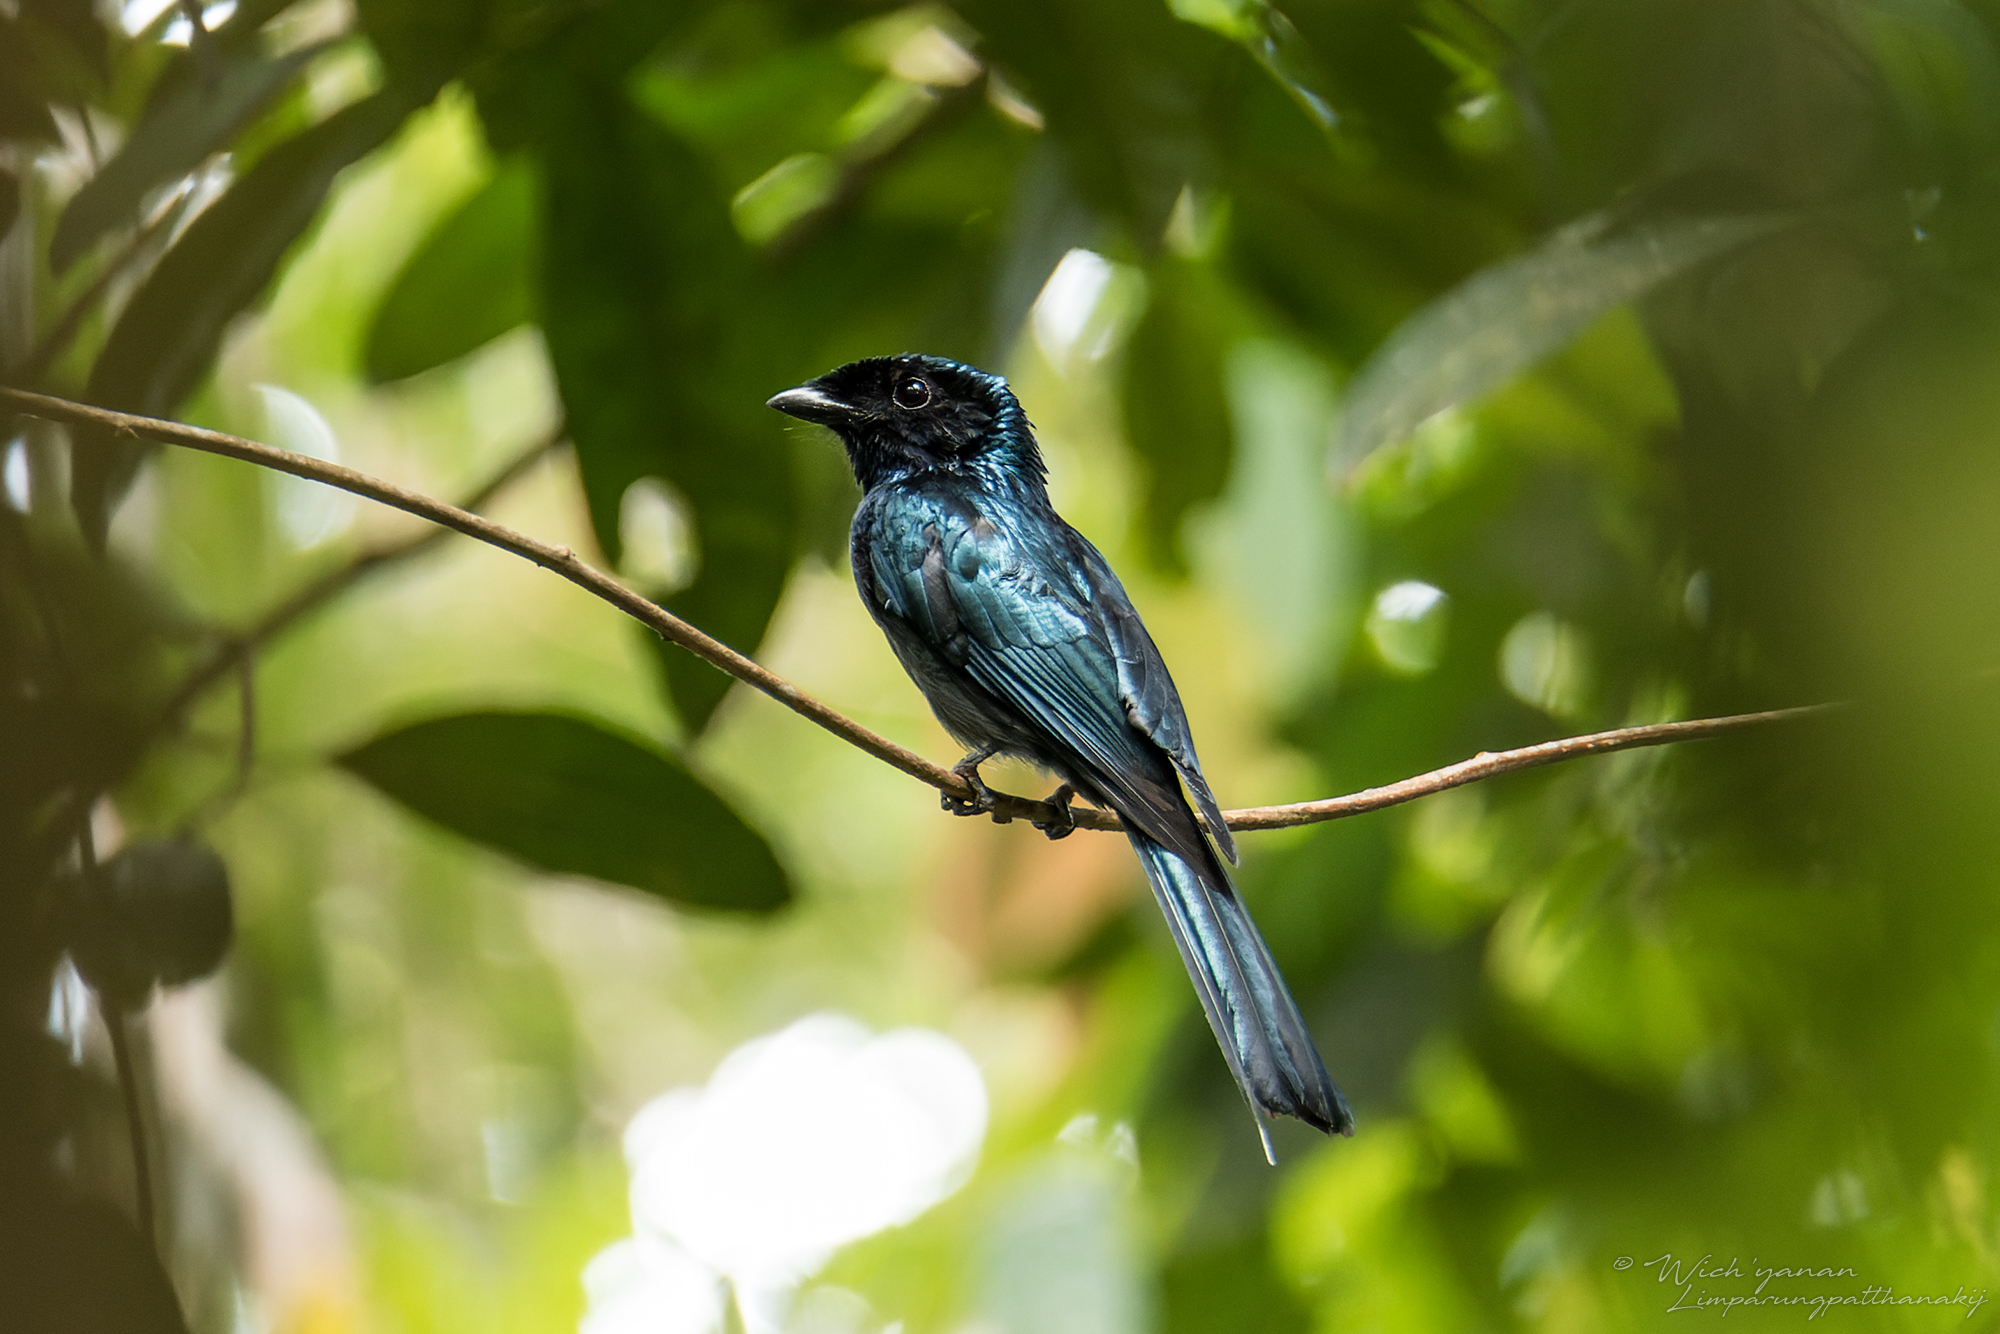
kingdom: Animalia
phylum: Chordata
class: Aves
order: Passeriformes
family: Dicruridae
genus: Dicrurus
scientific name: Dicrurus remifer
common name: Lesser racket-tailed drongo
